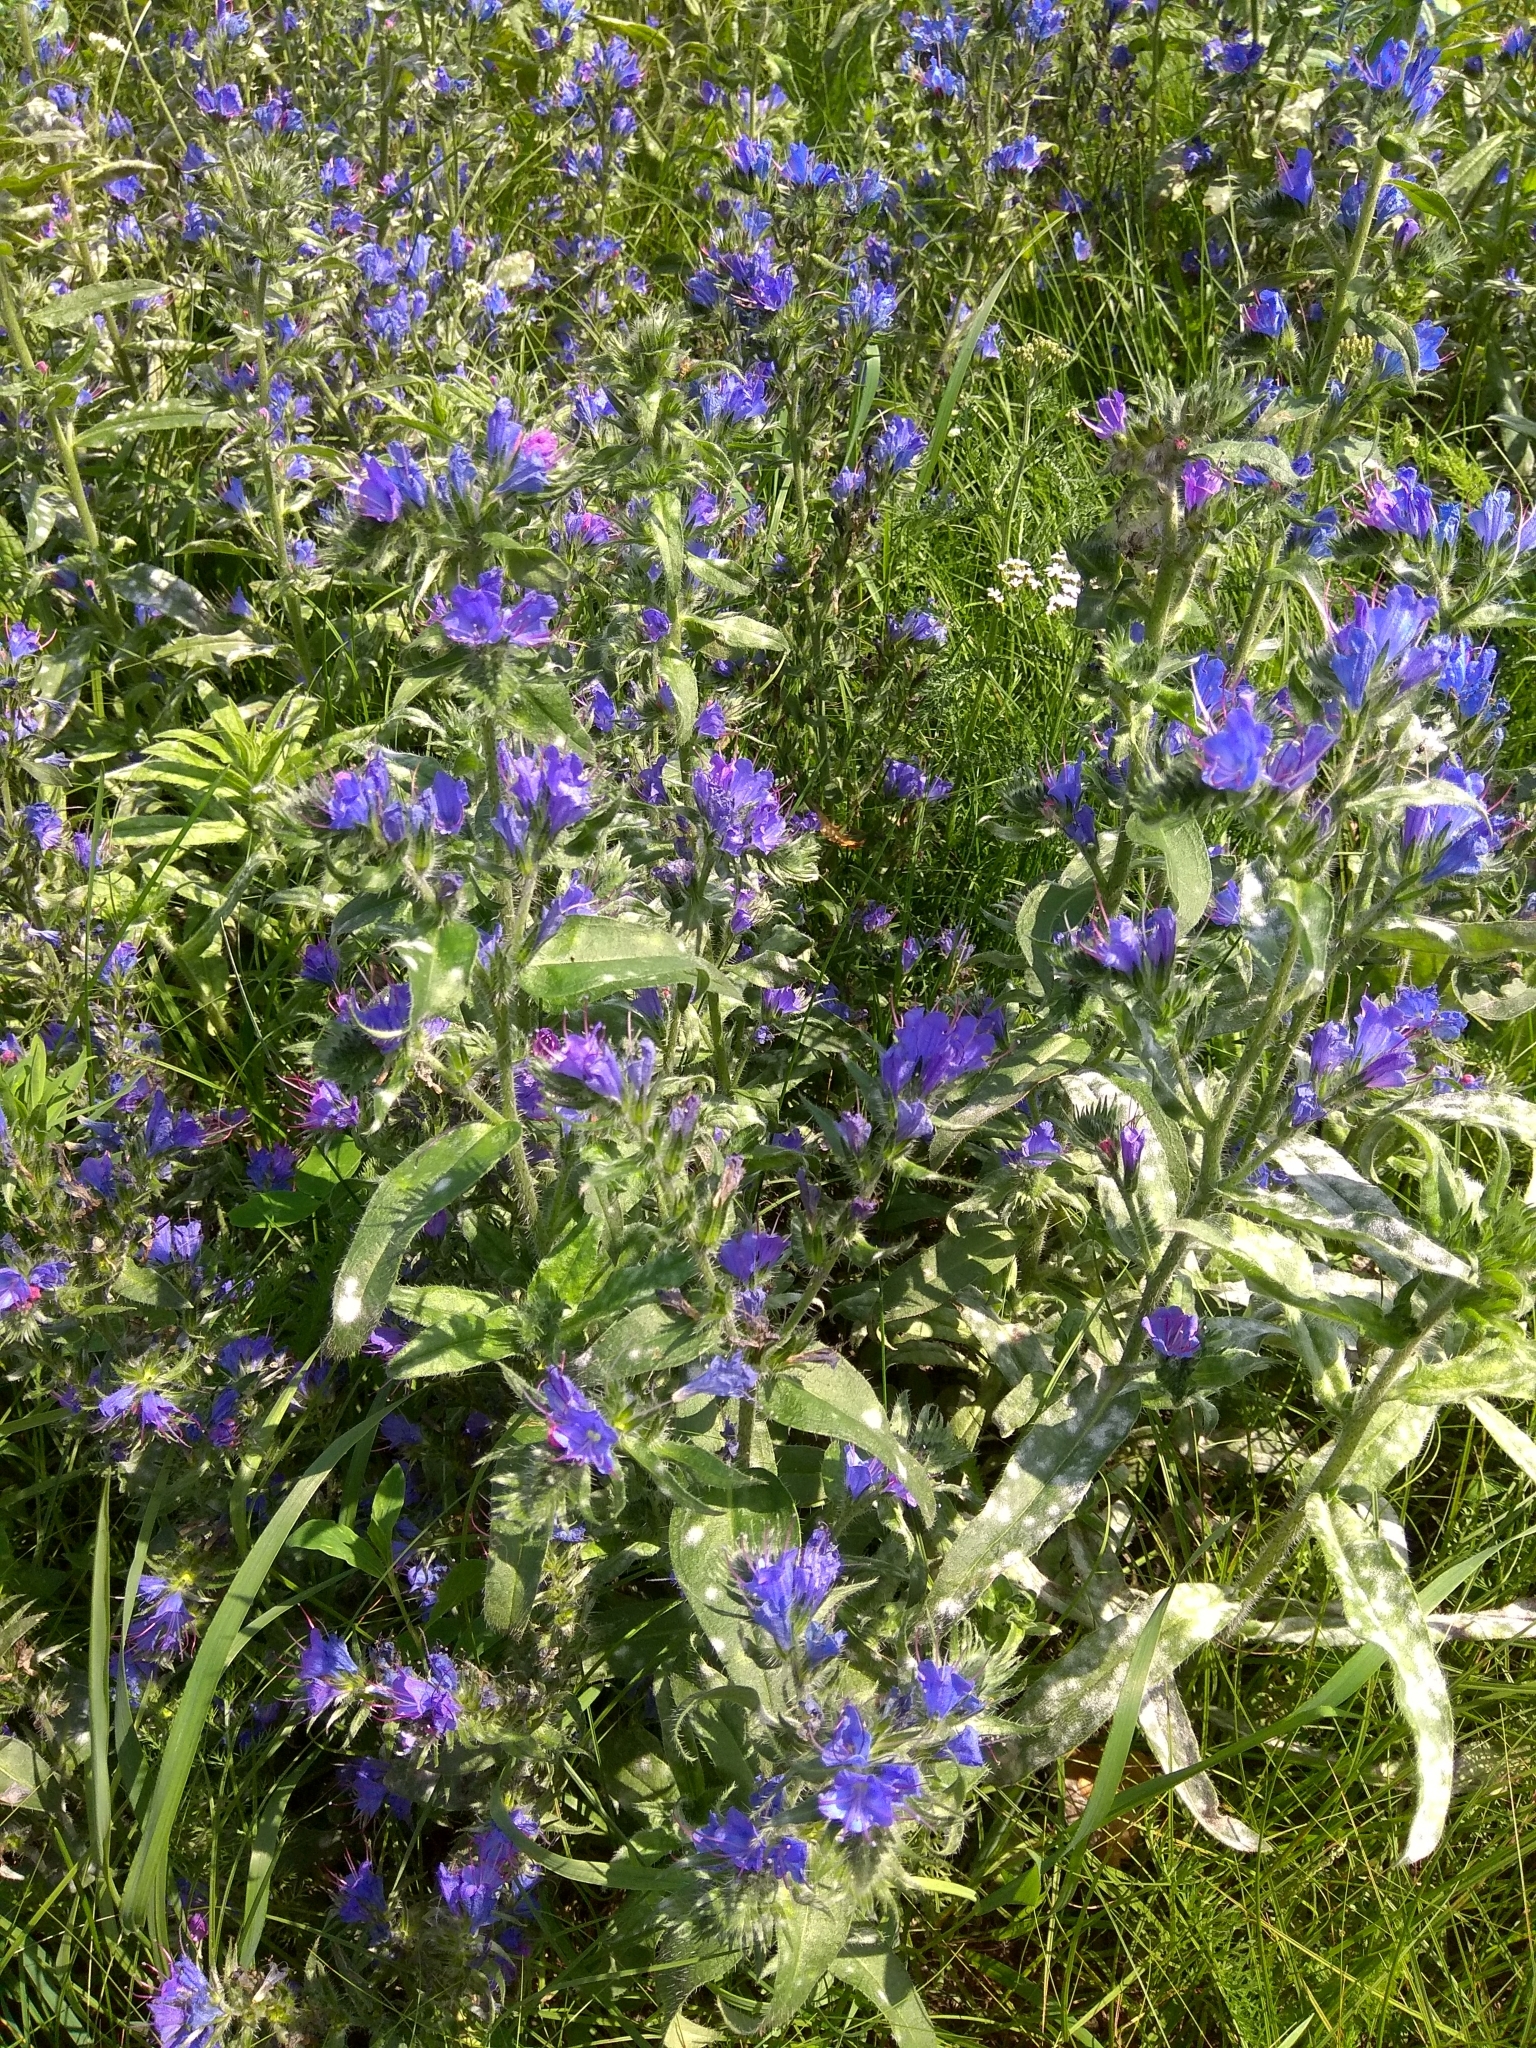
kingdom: Plantae
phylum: Tracheophyta
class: Magnoliopsida
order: Boraginales
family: Boraginaceae
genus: Echium
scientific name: Echium vulgare
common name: Common viper's bugloss
